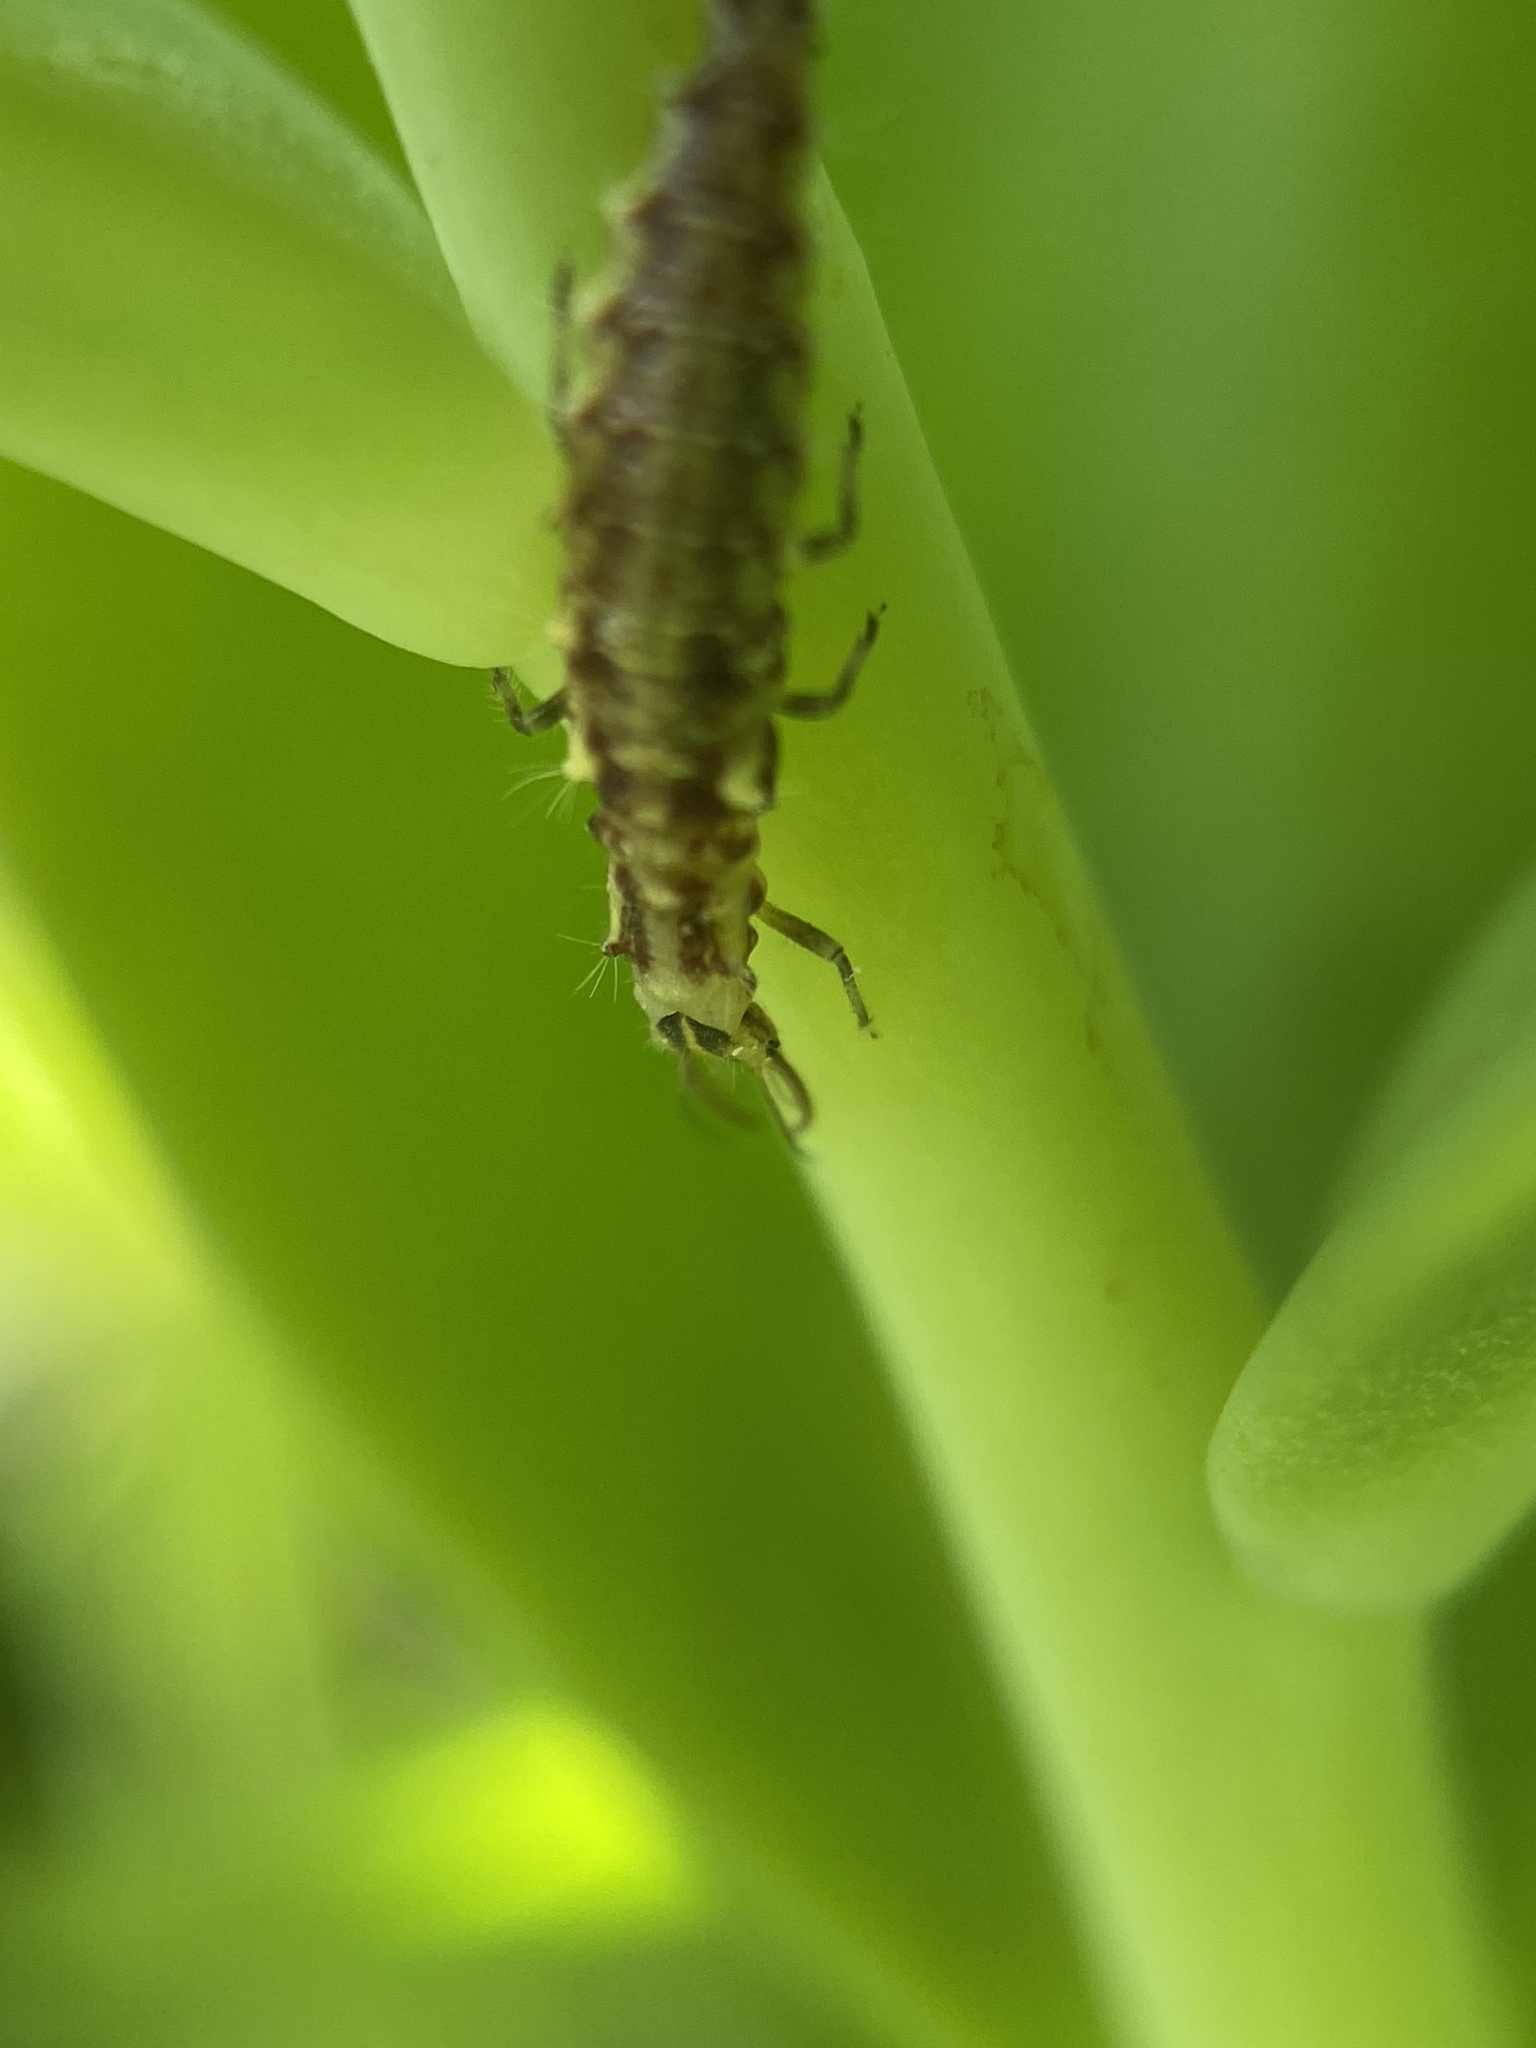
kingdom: Animalia
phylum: Arthropoda
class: Insecta
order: Neuroptera
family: Chrysopidae
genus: Chrysoperla
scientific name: Chrysoperla
